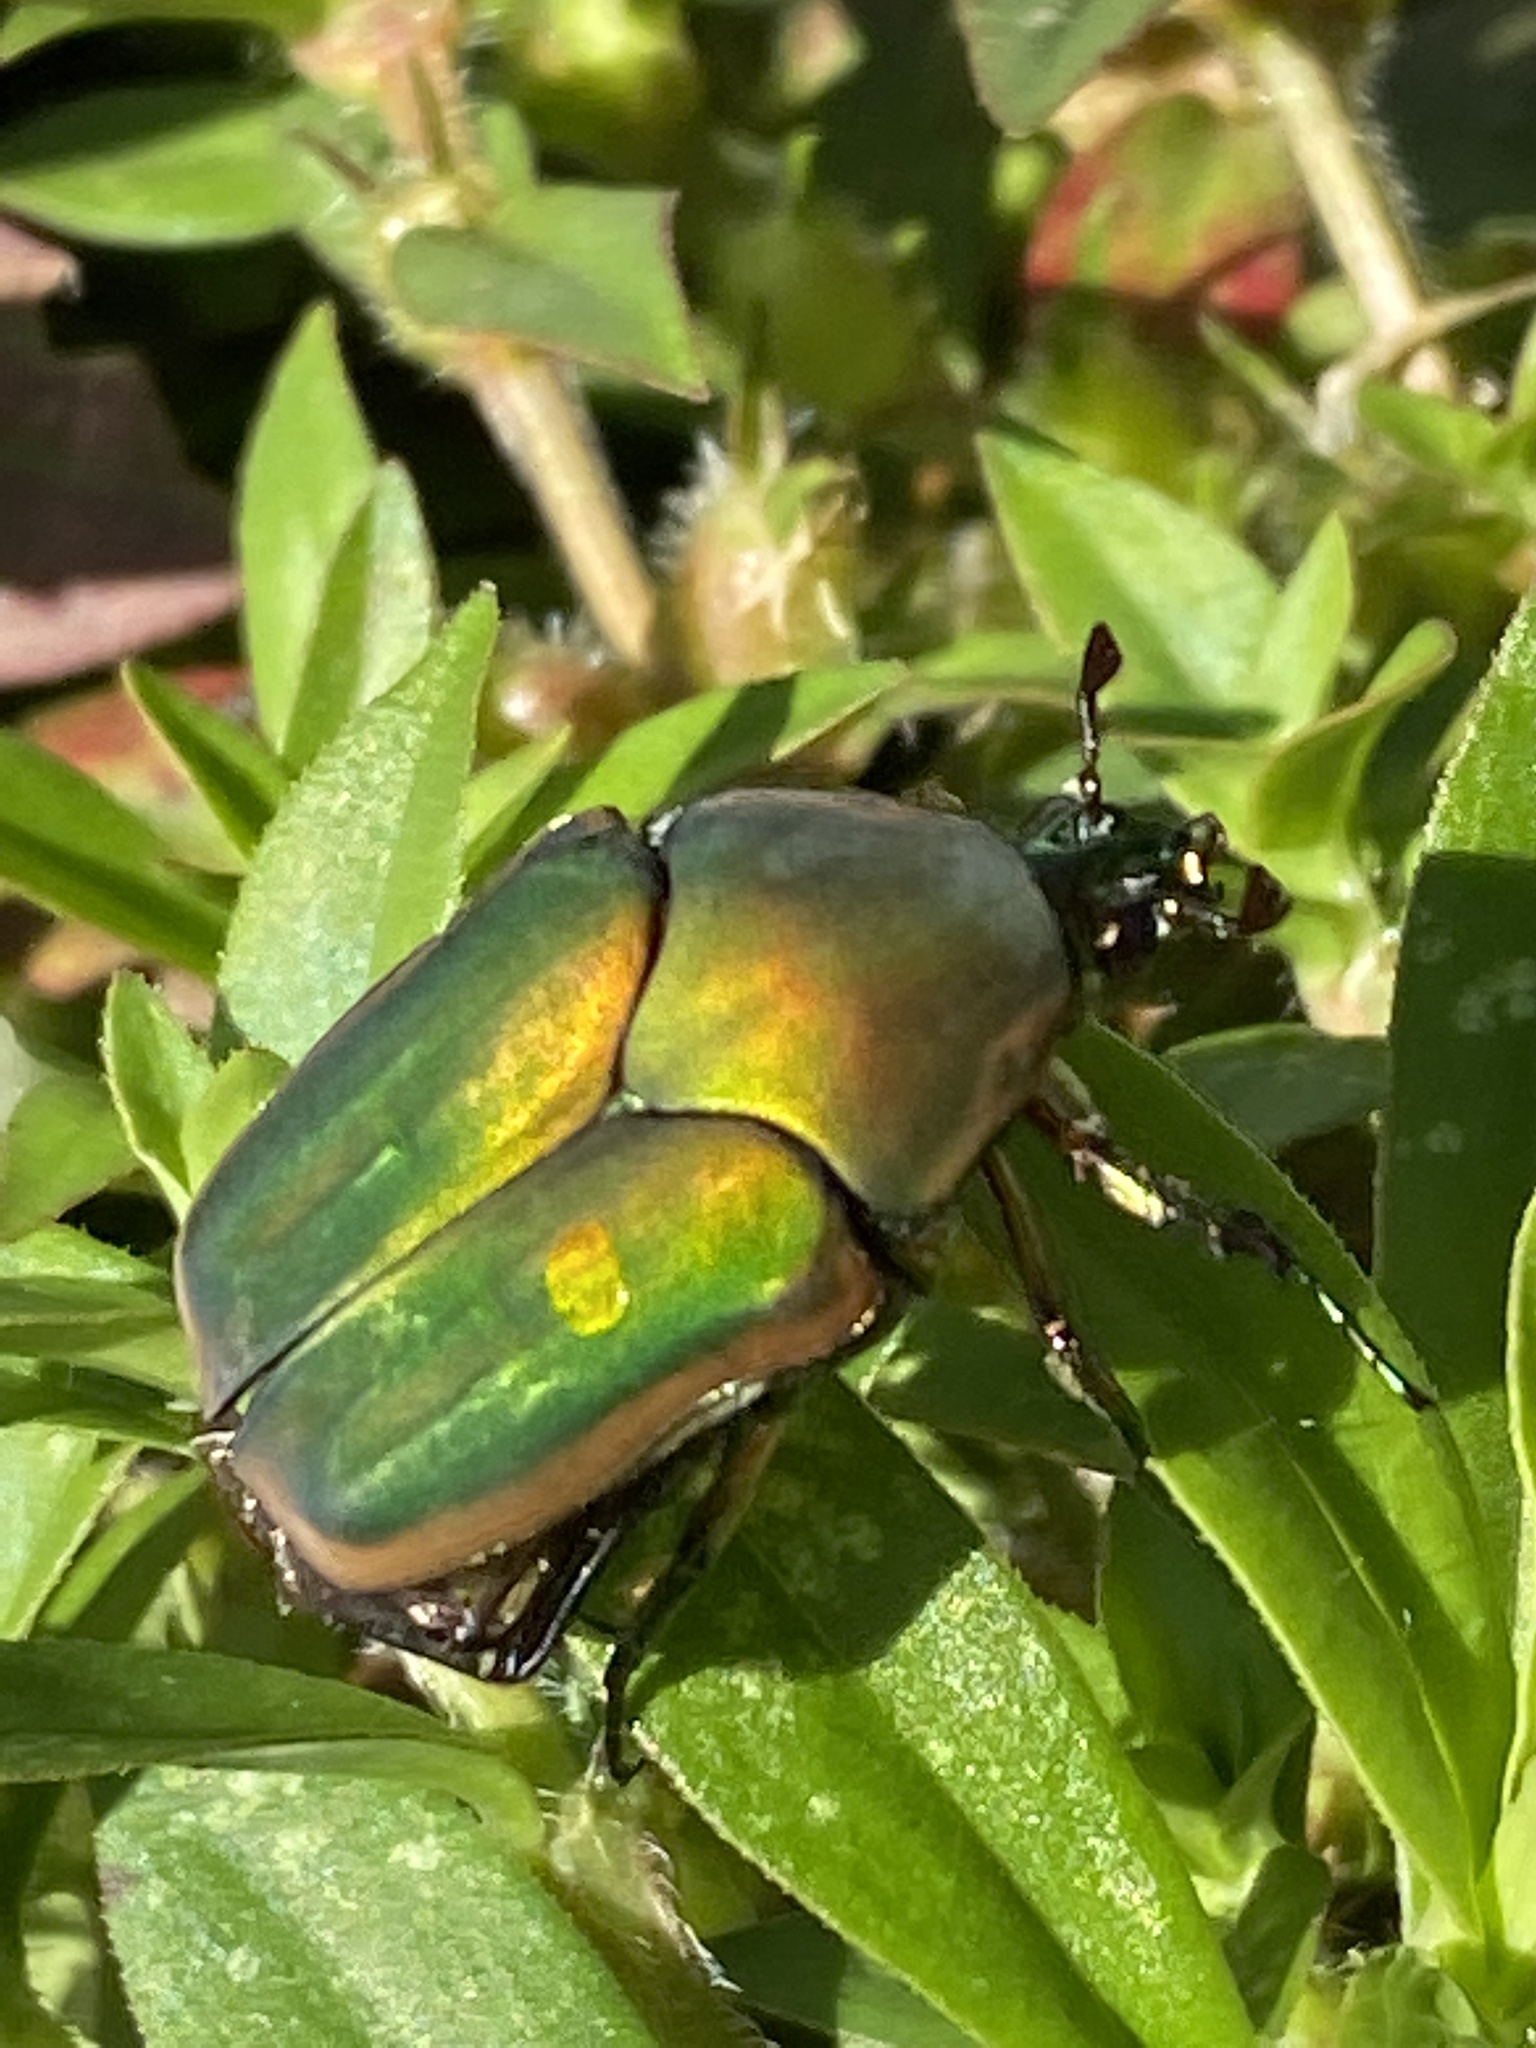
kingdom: Animalia
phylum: Arthropoda
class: Insecta
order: Coleoptera
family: Scarabaeidae
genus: Cotinis
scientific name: Cotinis nitida
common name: Common green june beetle
